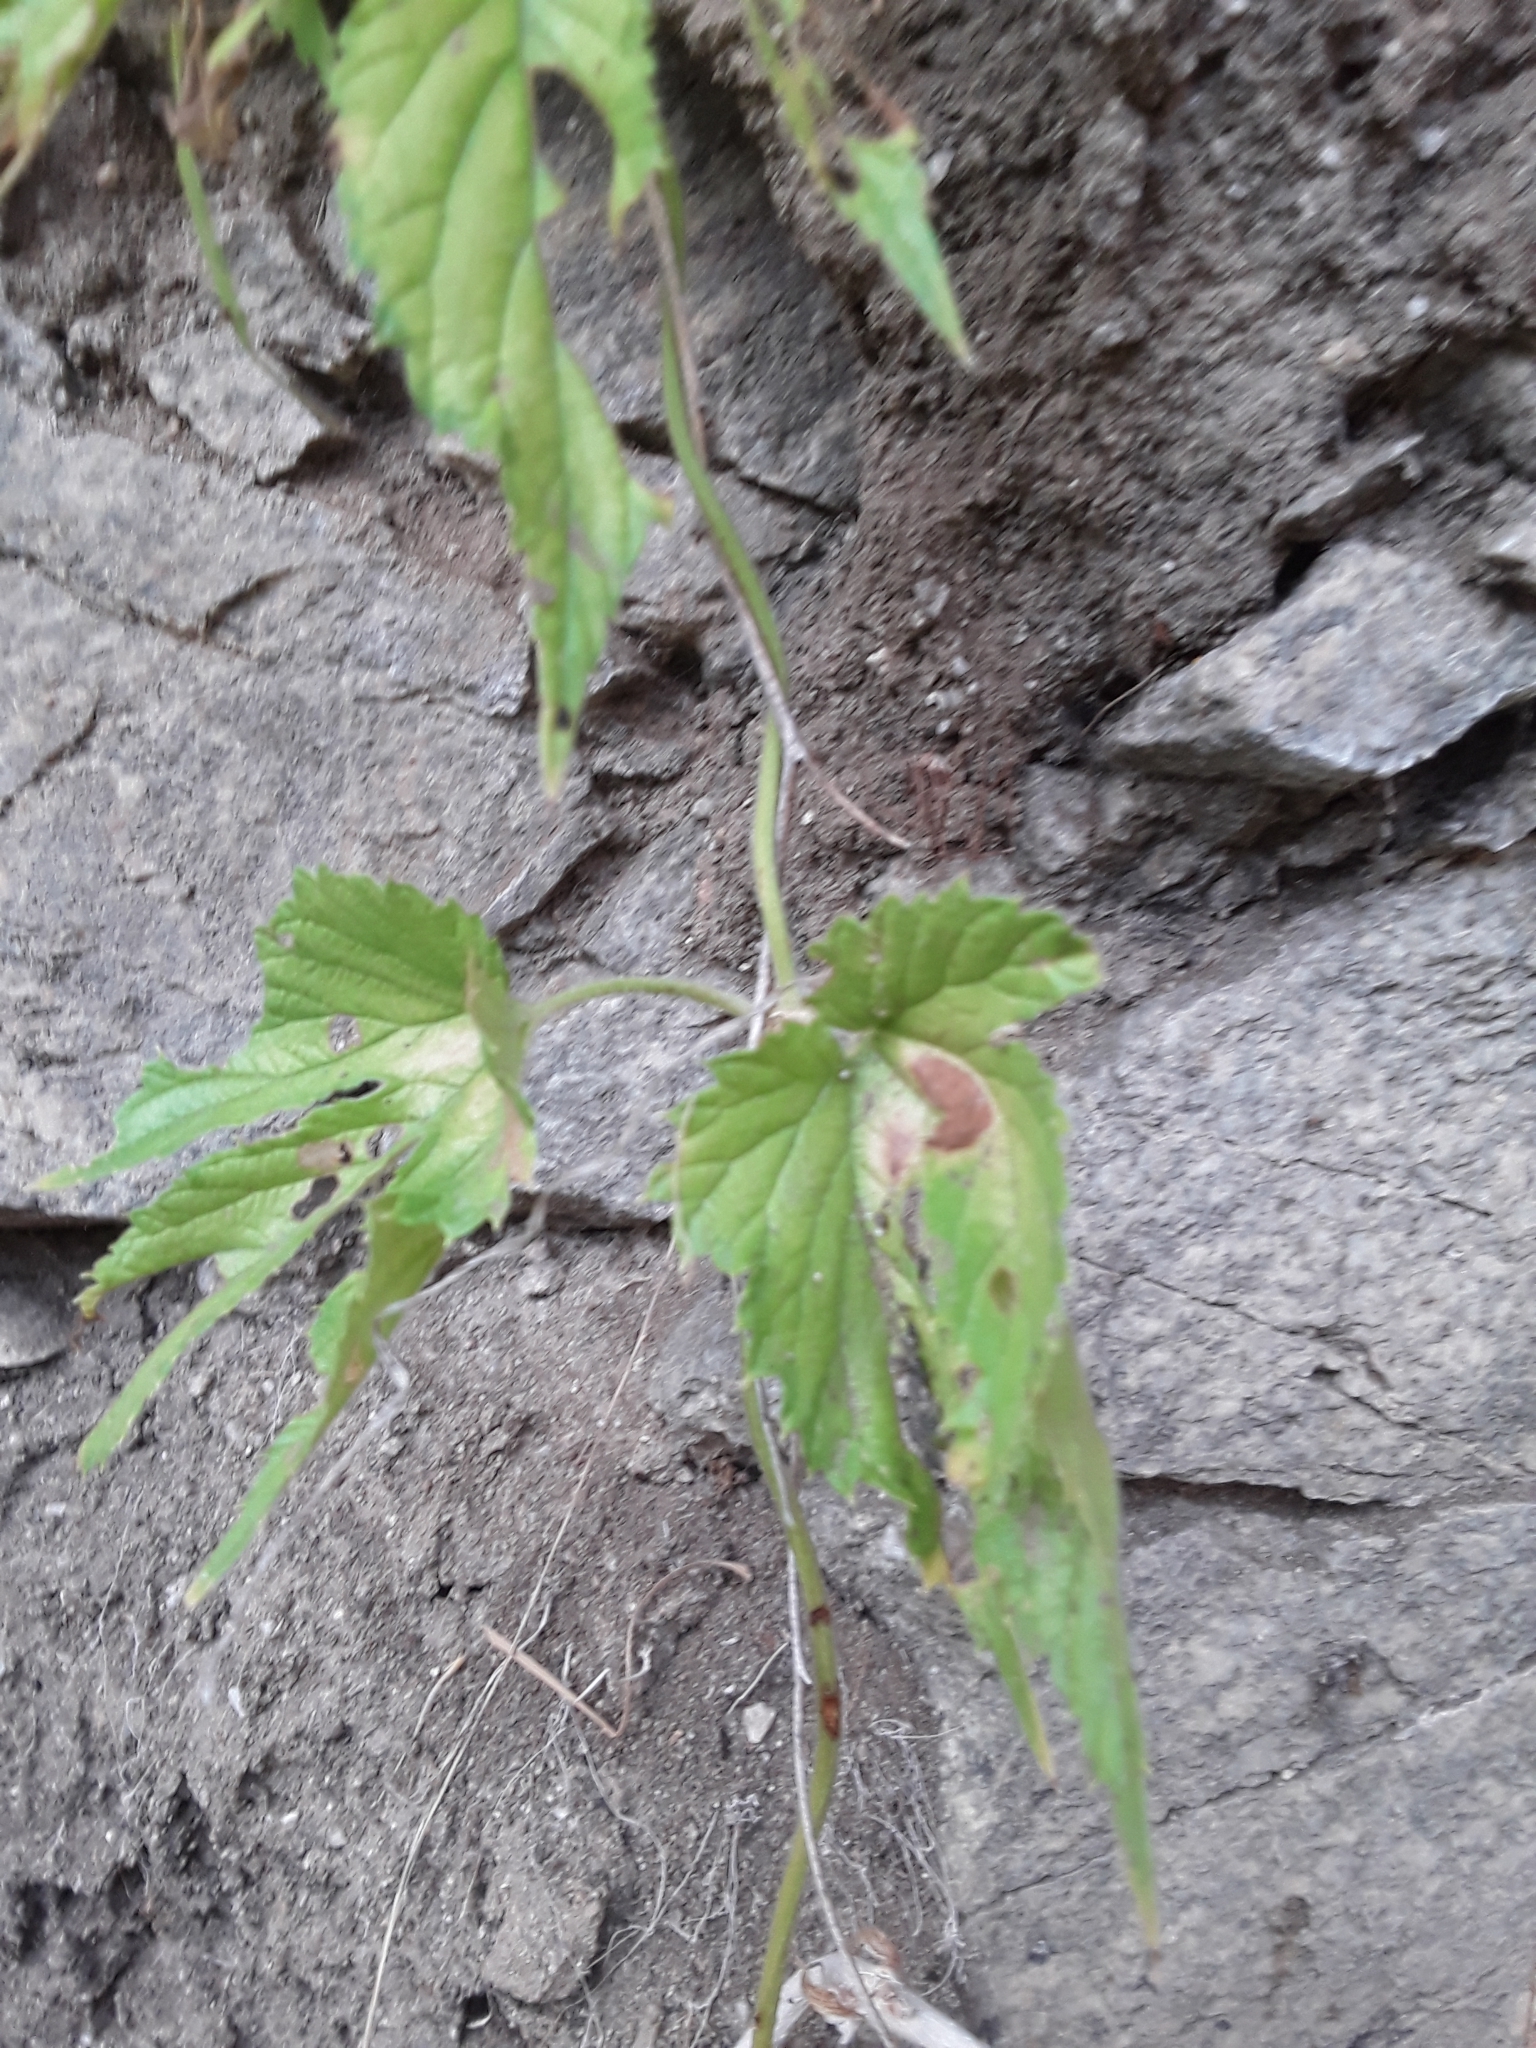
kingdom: Plantae
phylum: Tracheophyta
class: Magnoliopsida
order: Rosales
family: Cannabaceae
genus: Humulus
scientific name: Humulus lupulus
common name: Hop
